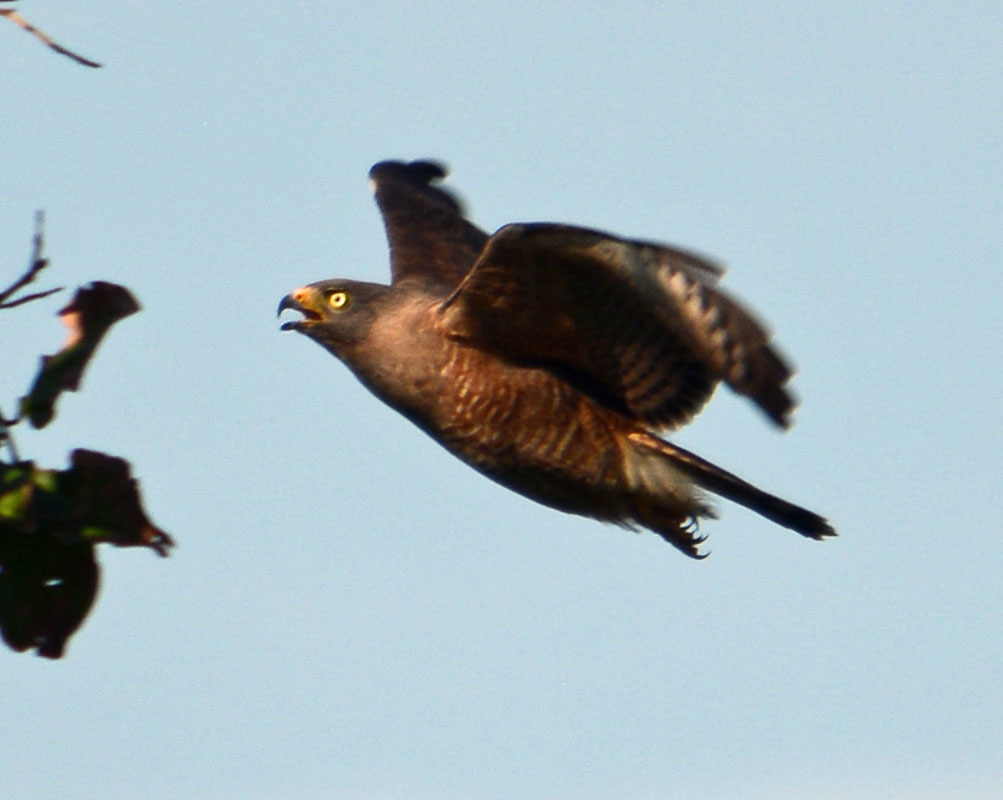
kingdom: Animalia
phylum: Chordata
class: Aves
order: Accipitriformes
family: Accipitridae
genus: Rupornis
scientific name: Rupornis magnirostris
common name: Roadside hawk
